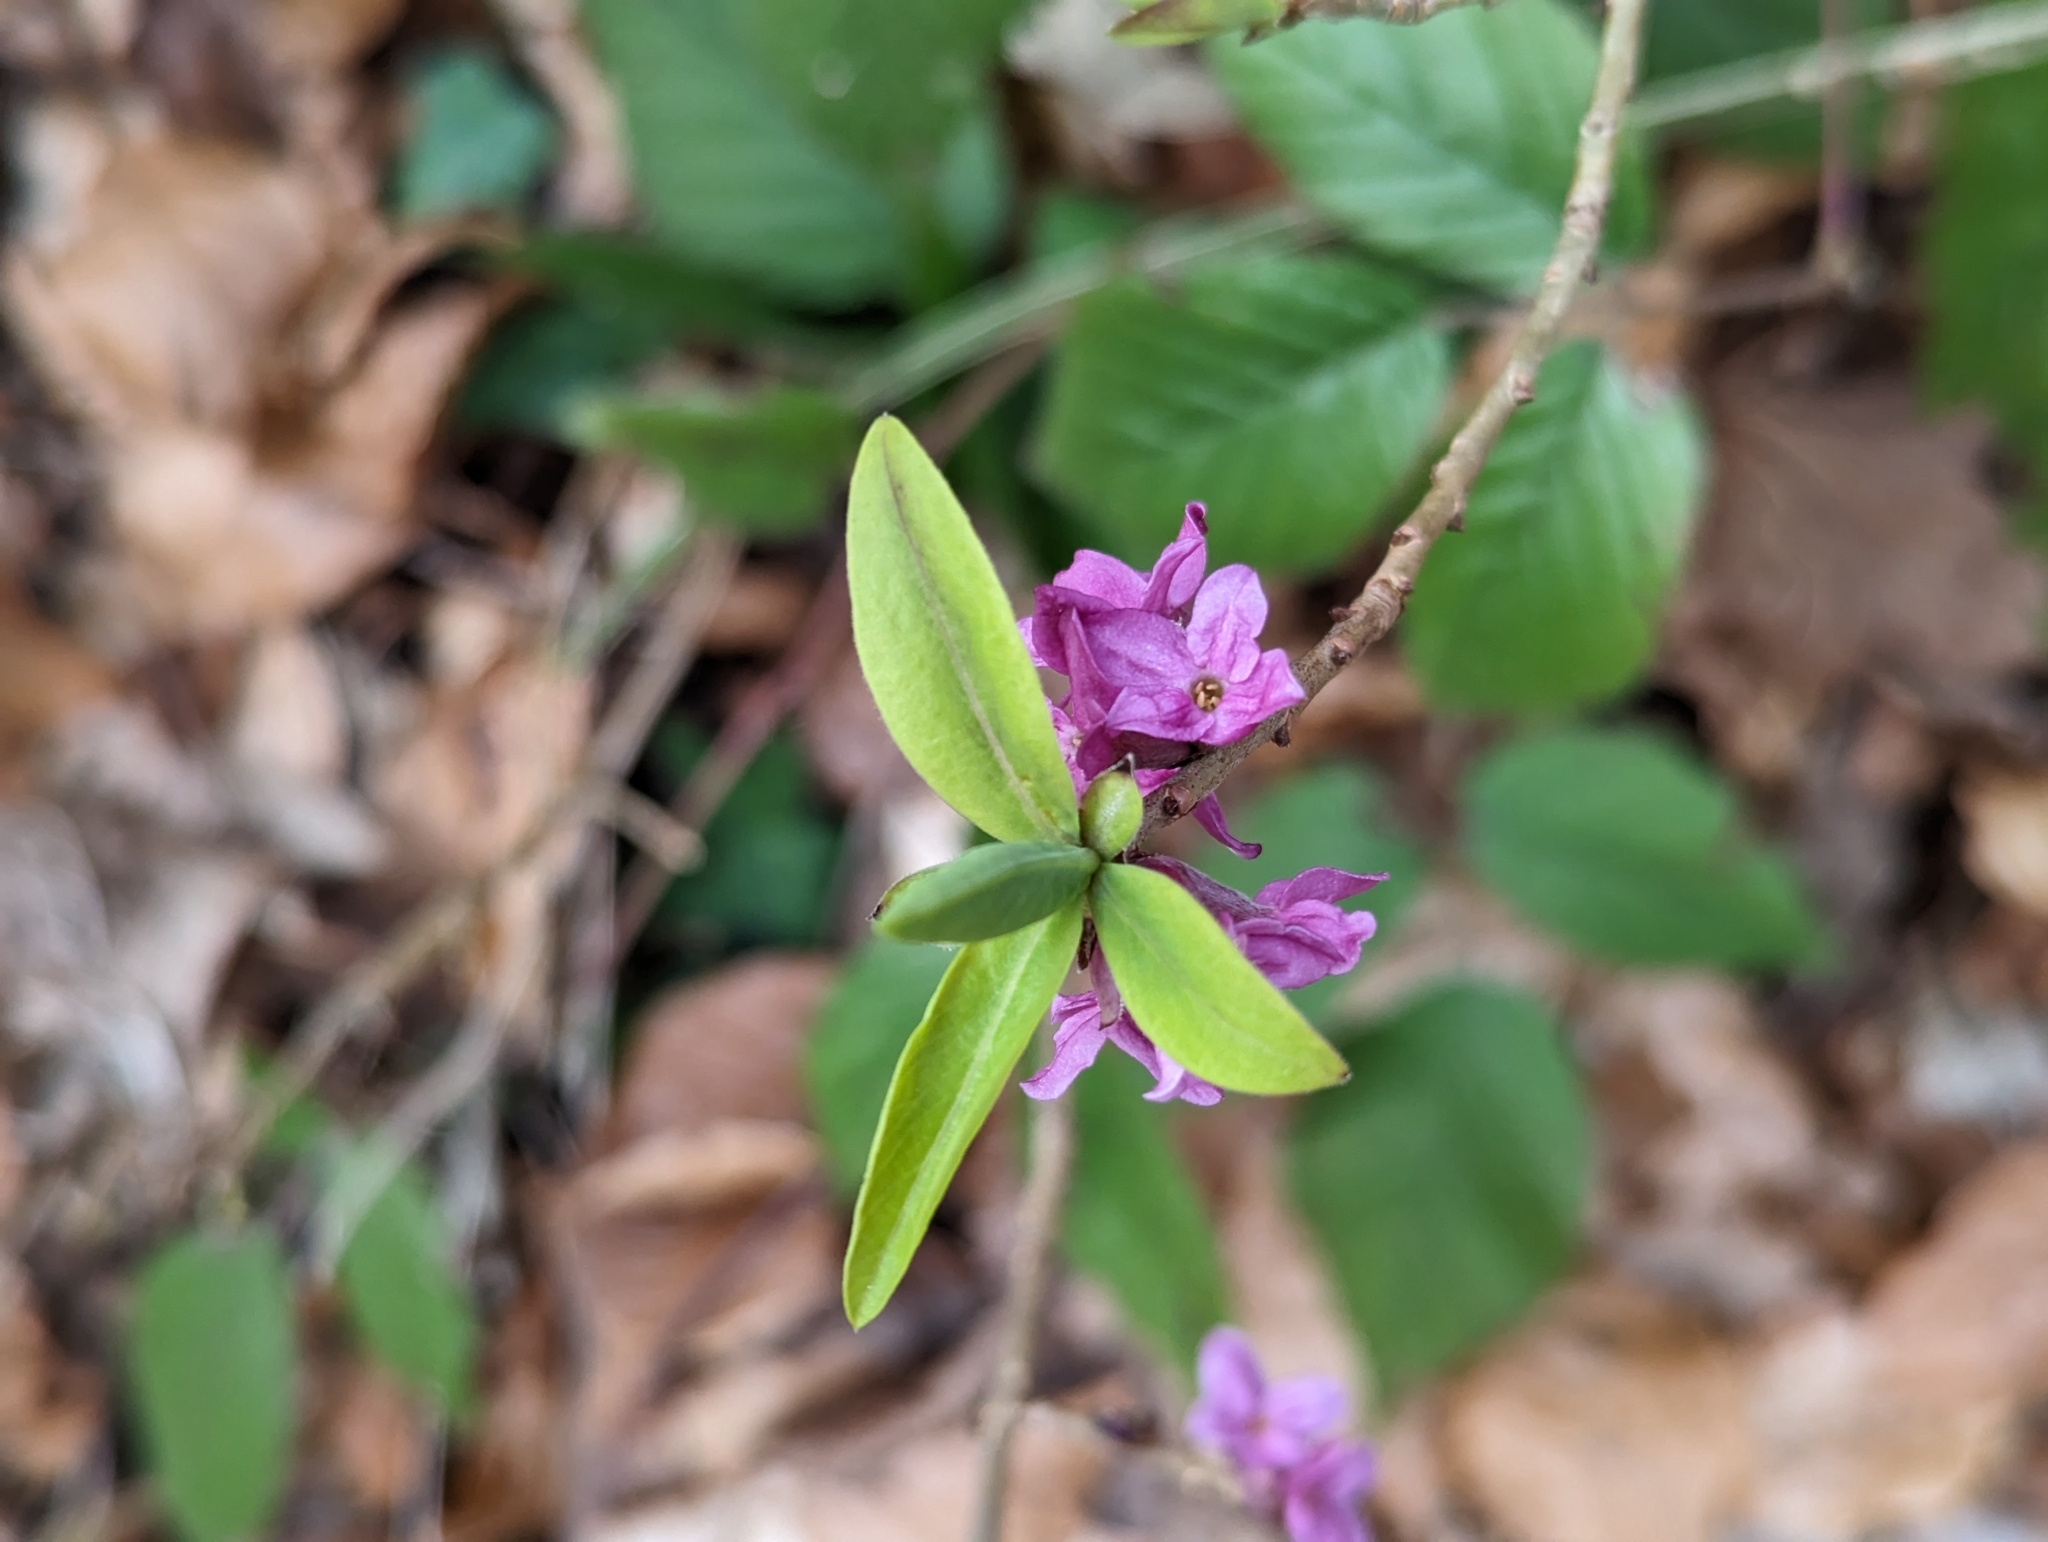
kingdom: Plantae
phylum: Tracheophyta
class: Magnoliopsida
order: Malvales
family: Thymelaeaceae
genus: Daphne
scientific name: Daphne mezereum
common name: Mezereon
